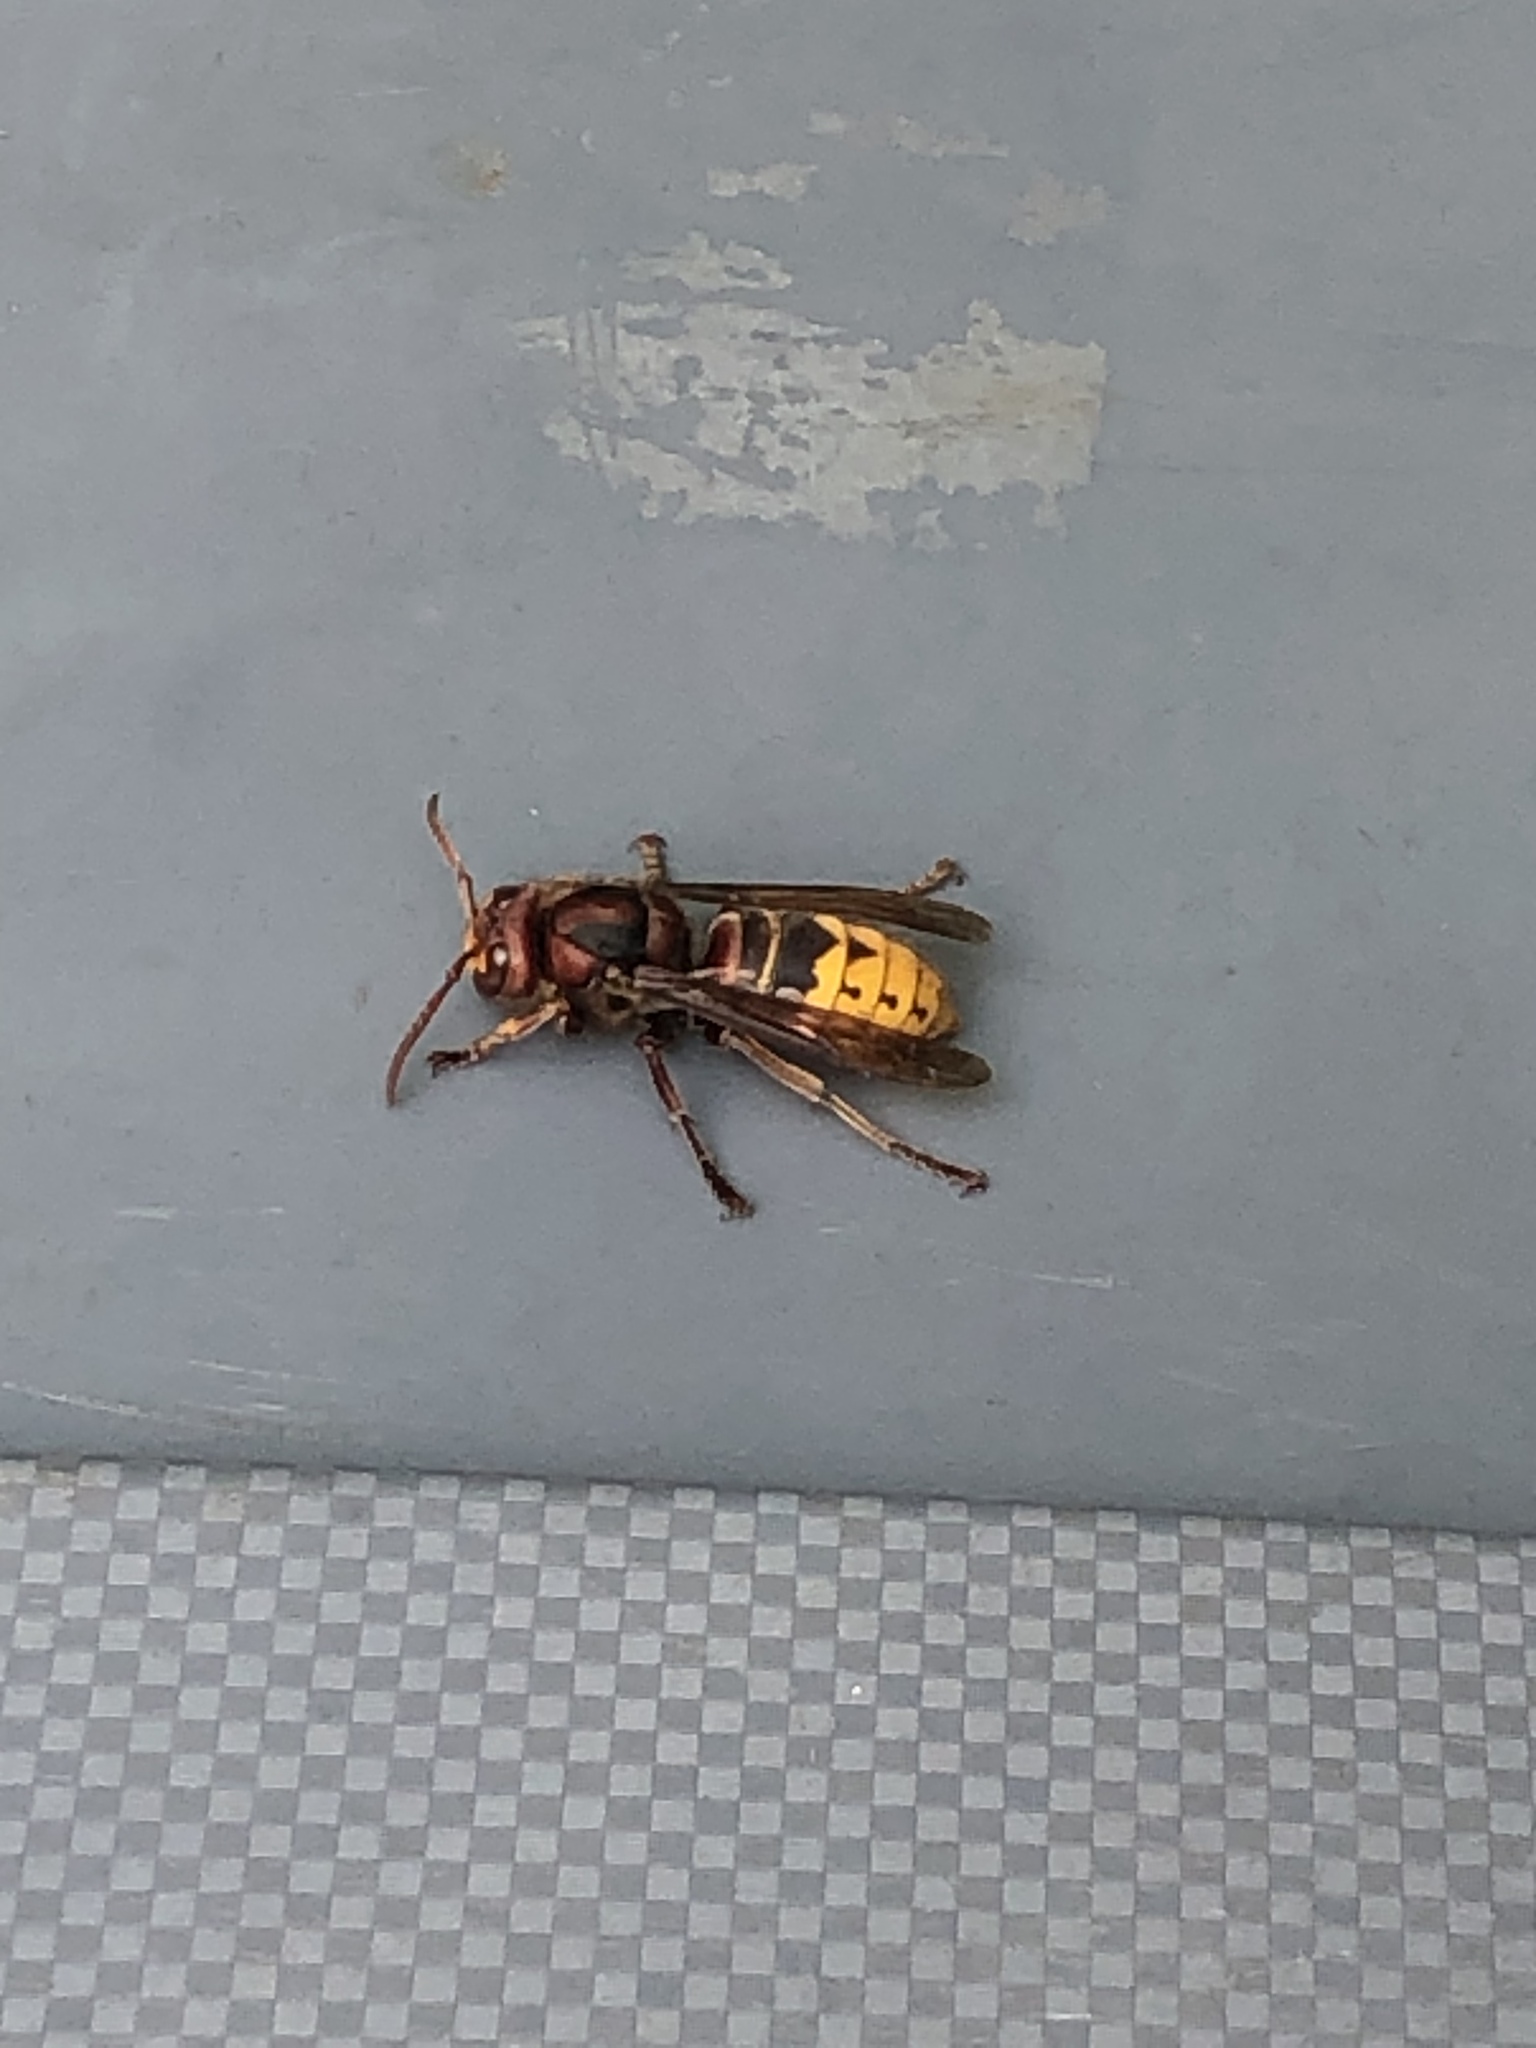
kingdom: Animalia
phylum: Arthropoda
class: Insecta
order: Hymenoptera
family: Vespidae
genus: Vespa
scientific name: Vespa crabro
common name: Hornet
